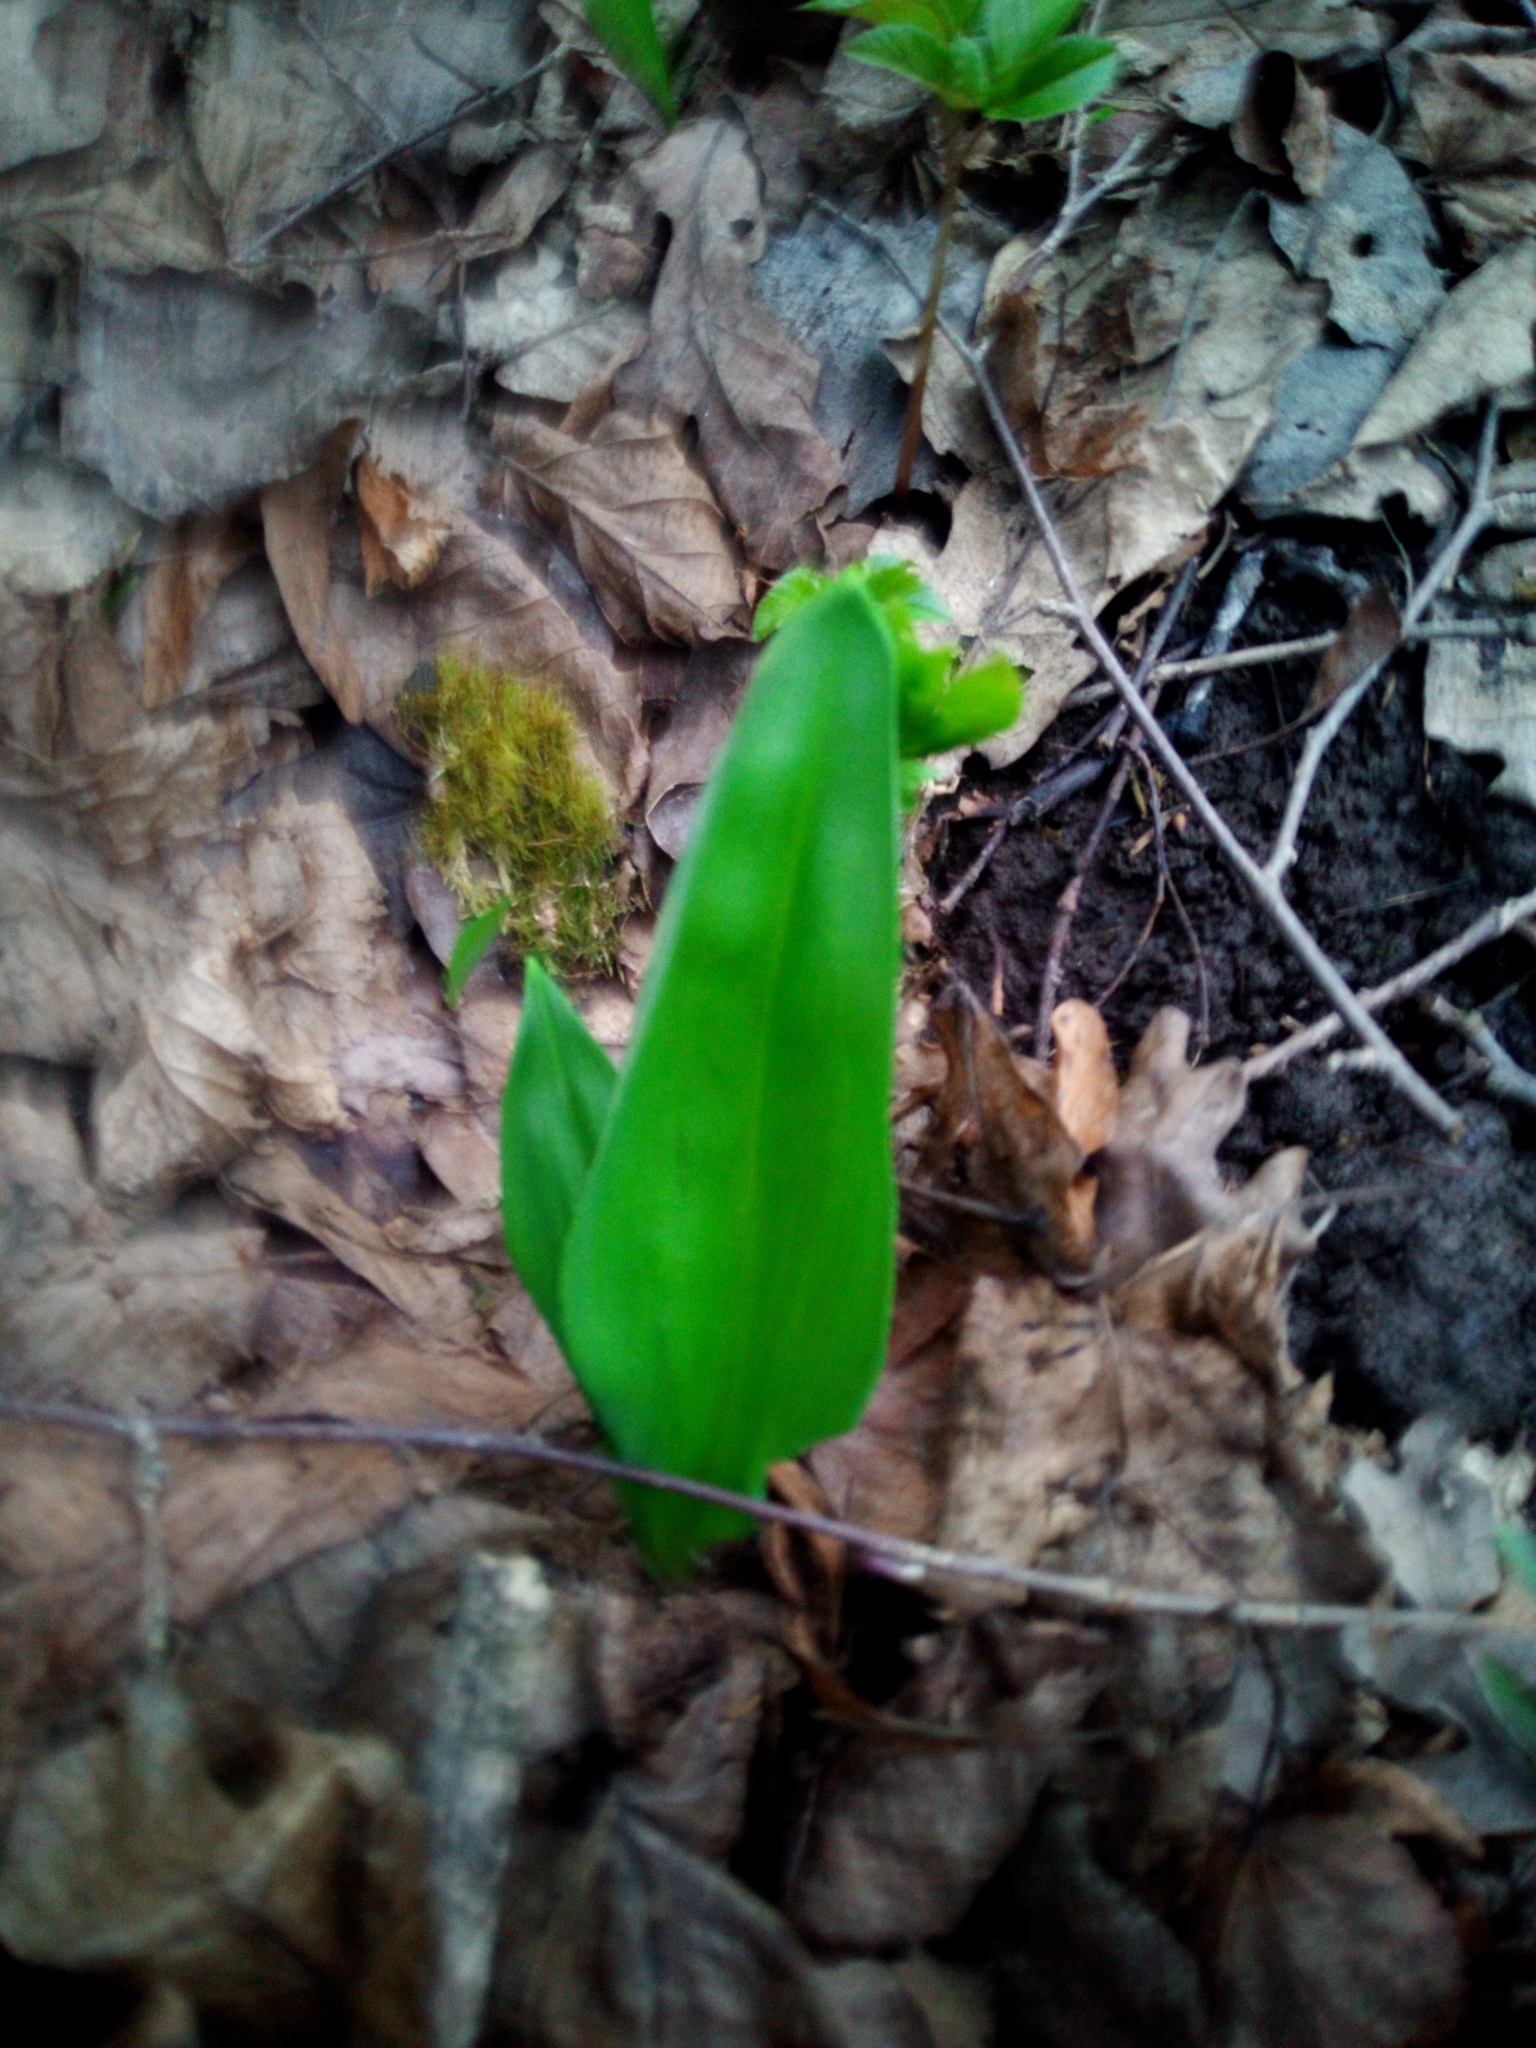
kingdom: Plantae
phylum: Tracheophyta
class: Liliopsida
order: Asparagales
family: Amaryllidaceae
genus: Allium
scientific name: Allium ursinum
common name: Ramsons
